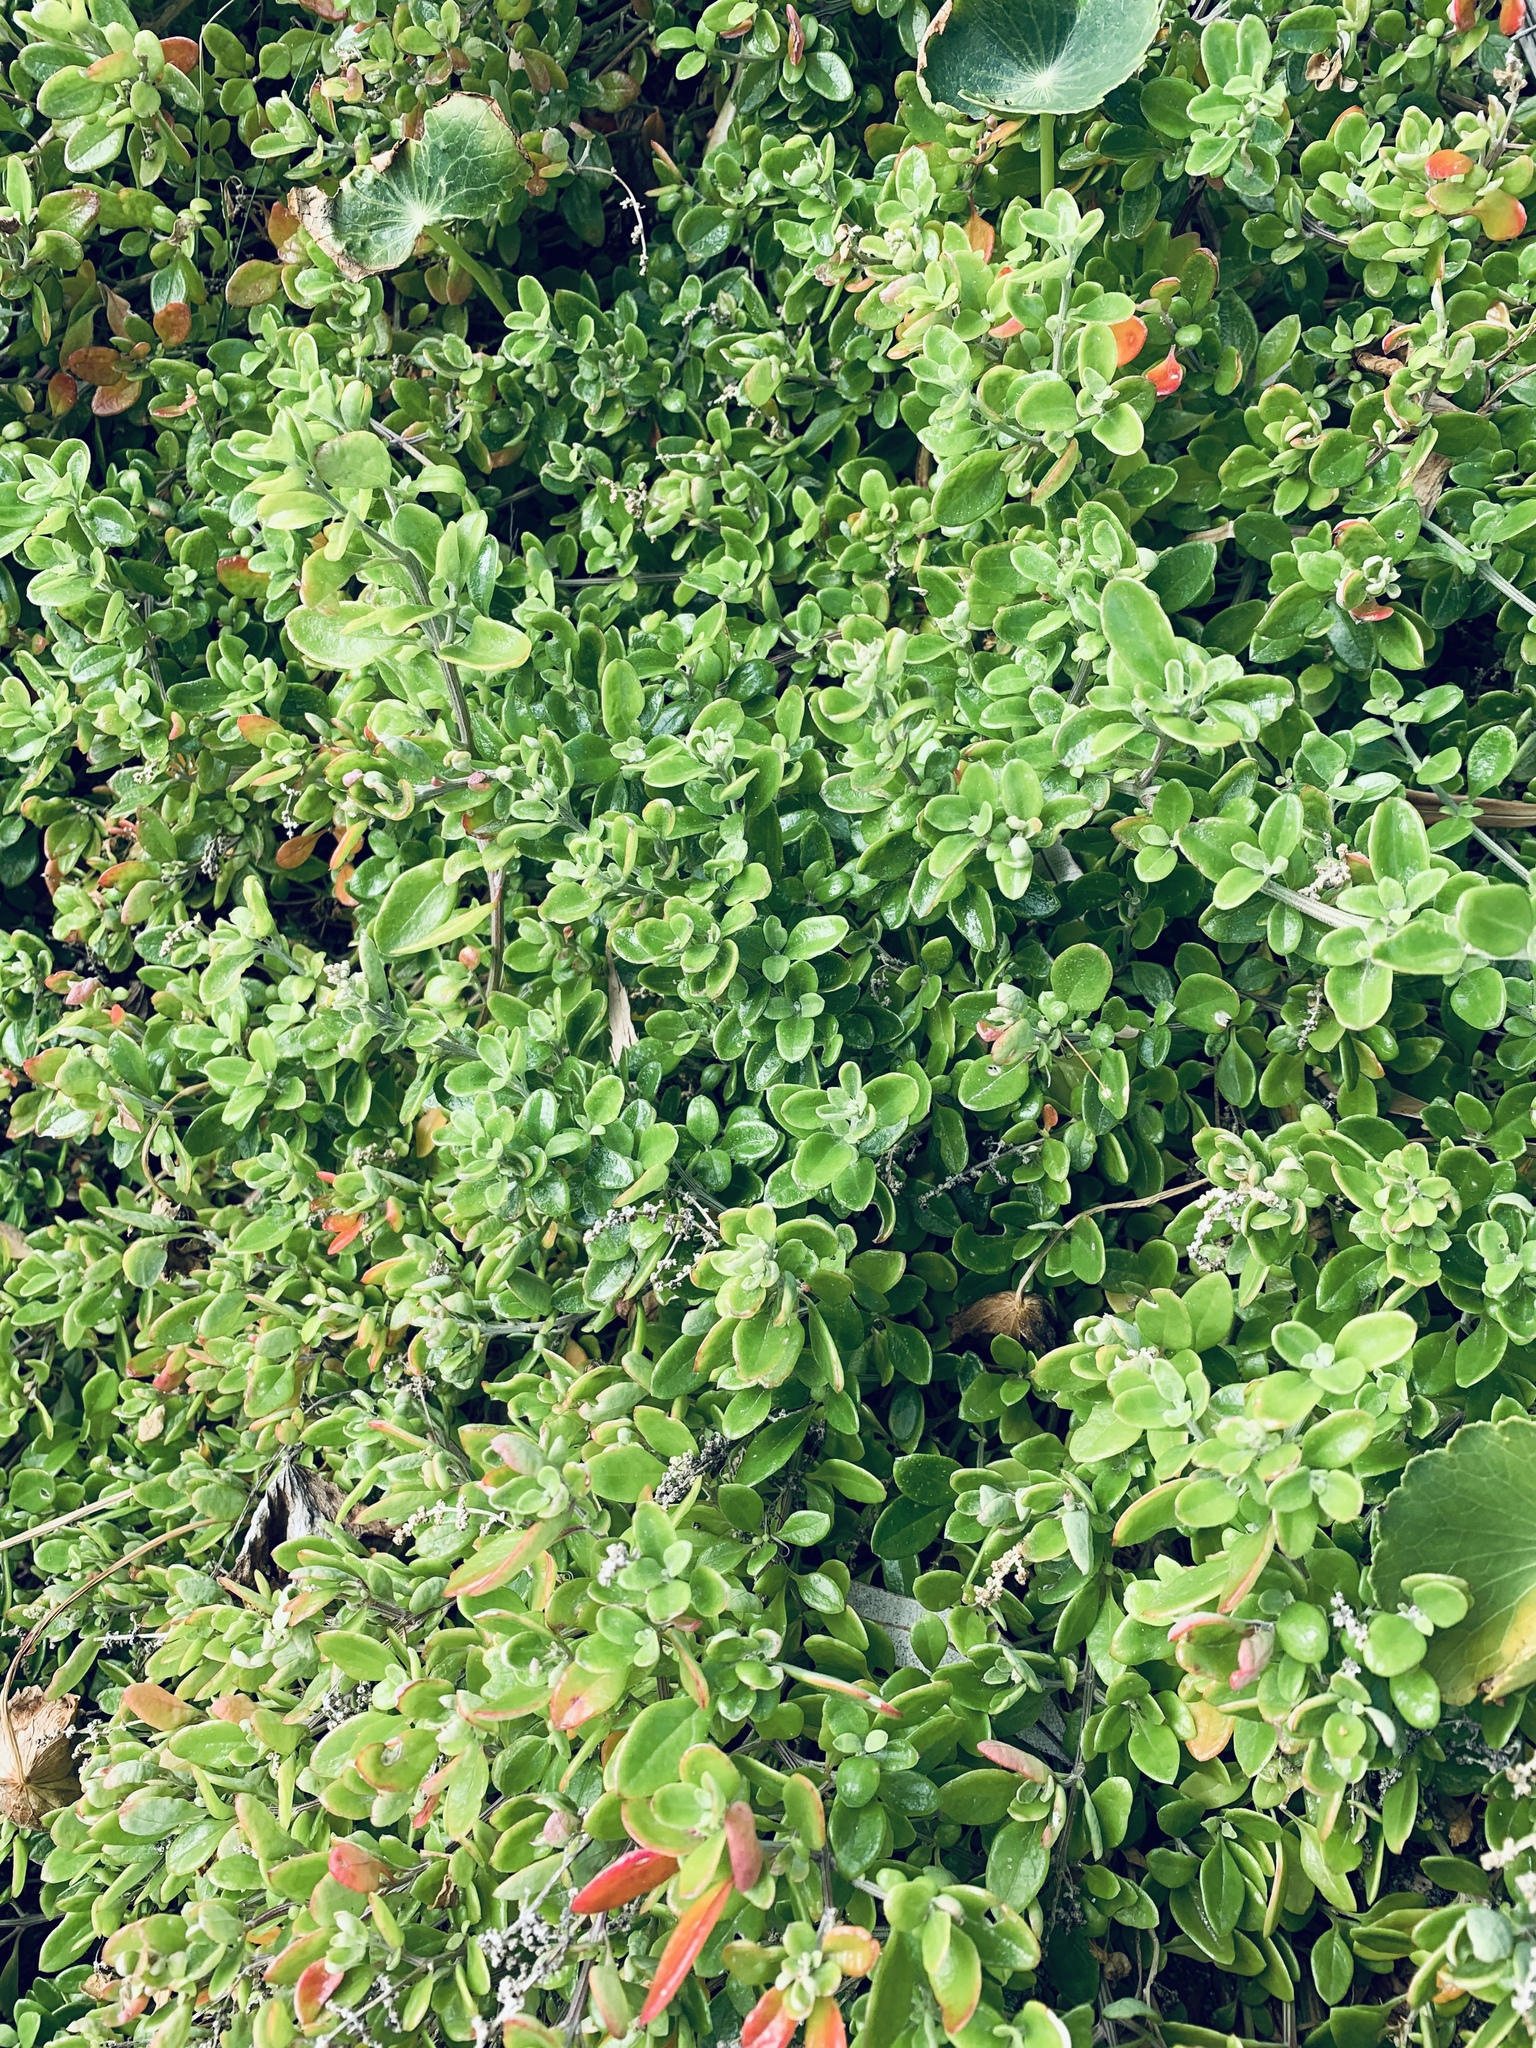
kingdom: Plantae
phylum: Tracheophyta
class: Magnoliopsida
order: Caryophyllales
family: Amaranthaceae
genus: Chenopodium
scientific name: Chenopodium candolleanum
